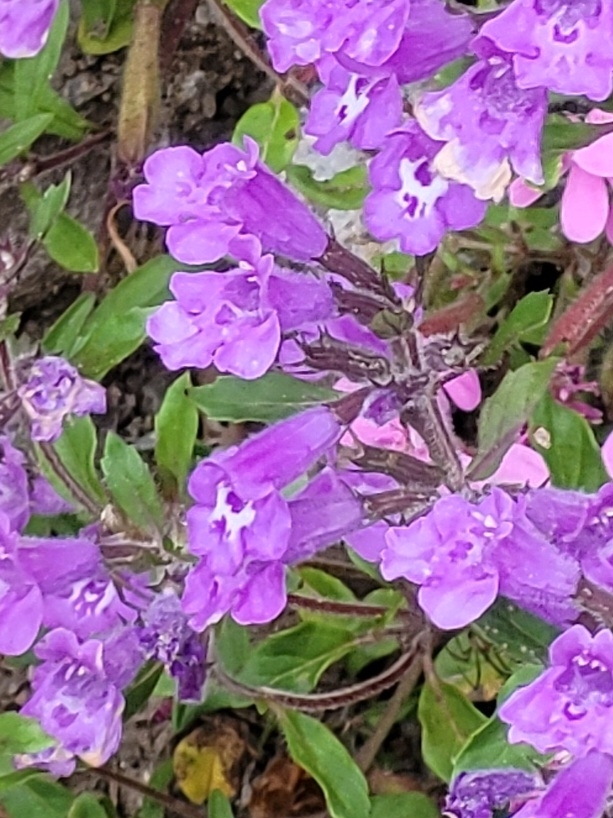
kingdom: Plantae
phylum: Tracheophyta
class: Magnoliopsida
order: Lamiales
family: Lamiaceae
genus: Clinopodium
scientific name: Clinopodium alpinum
